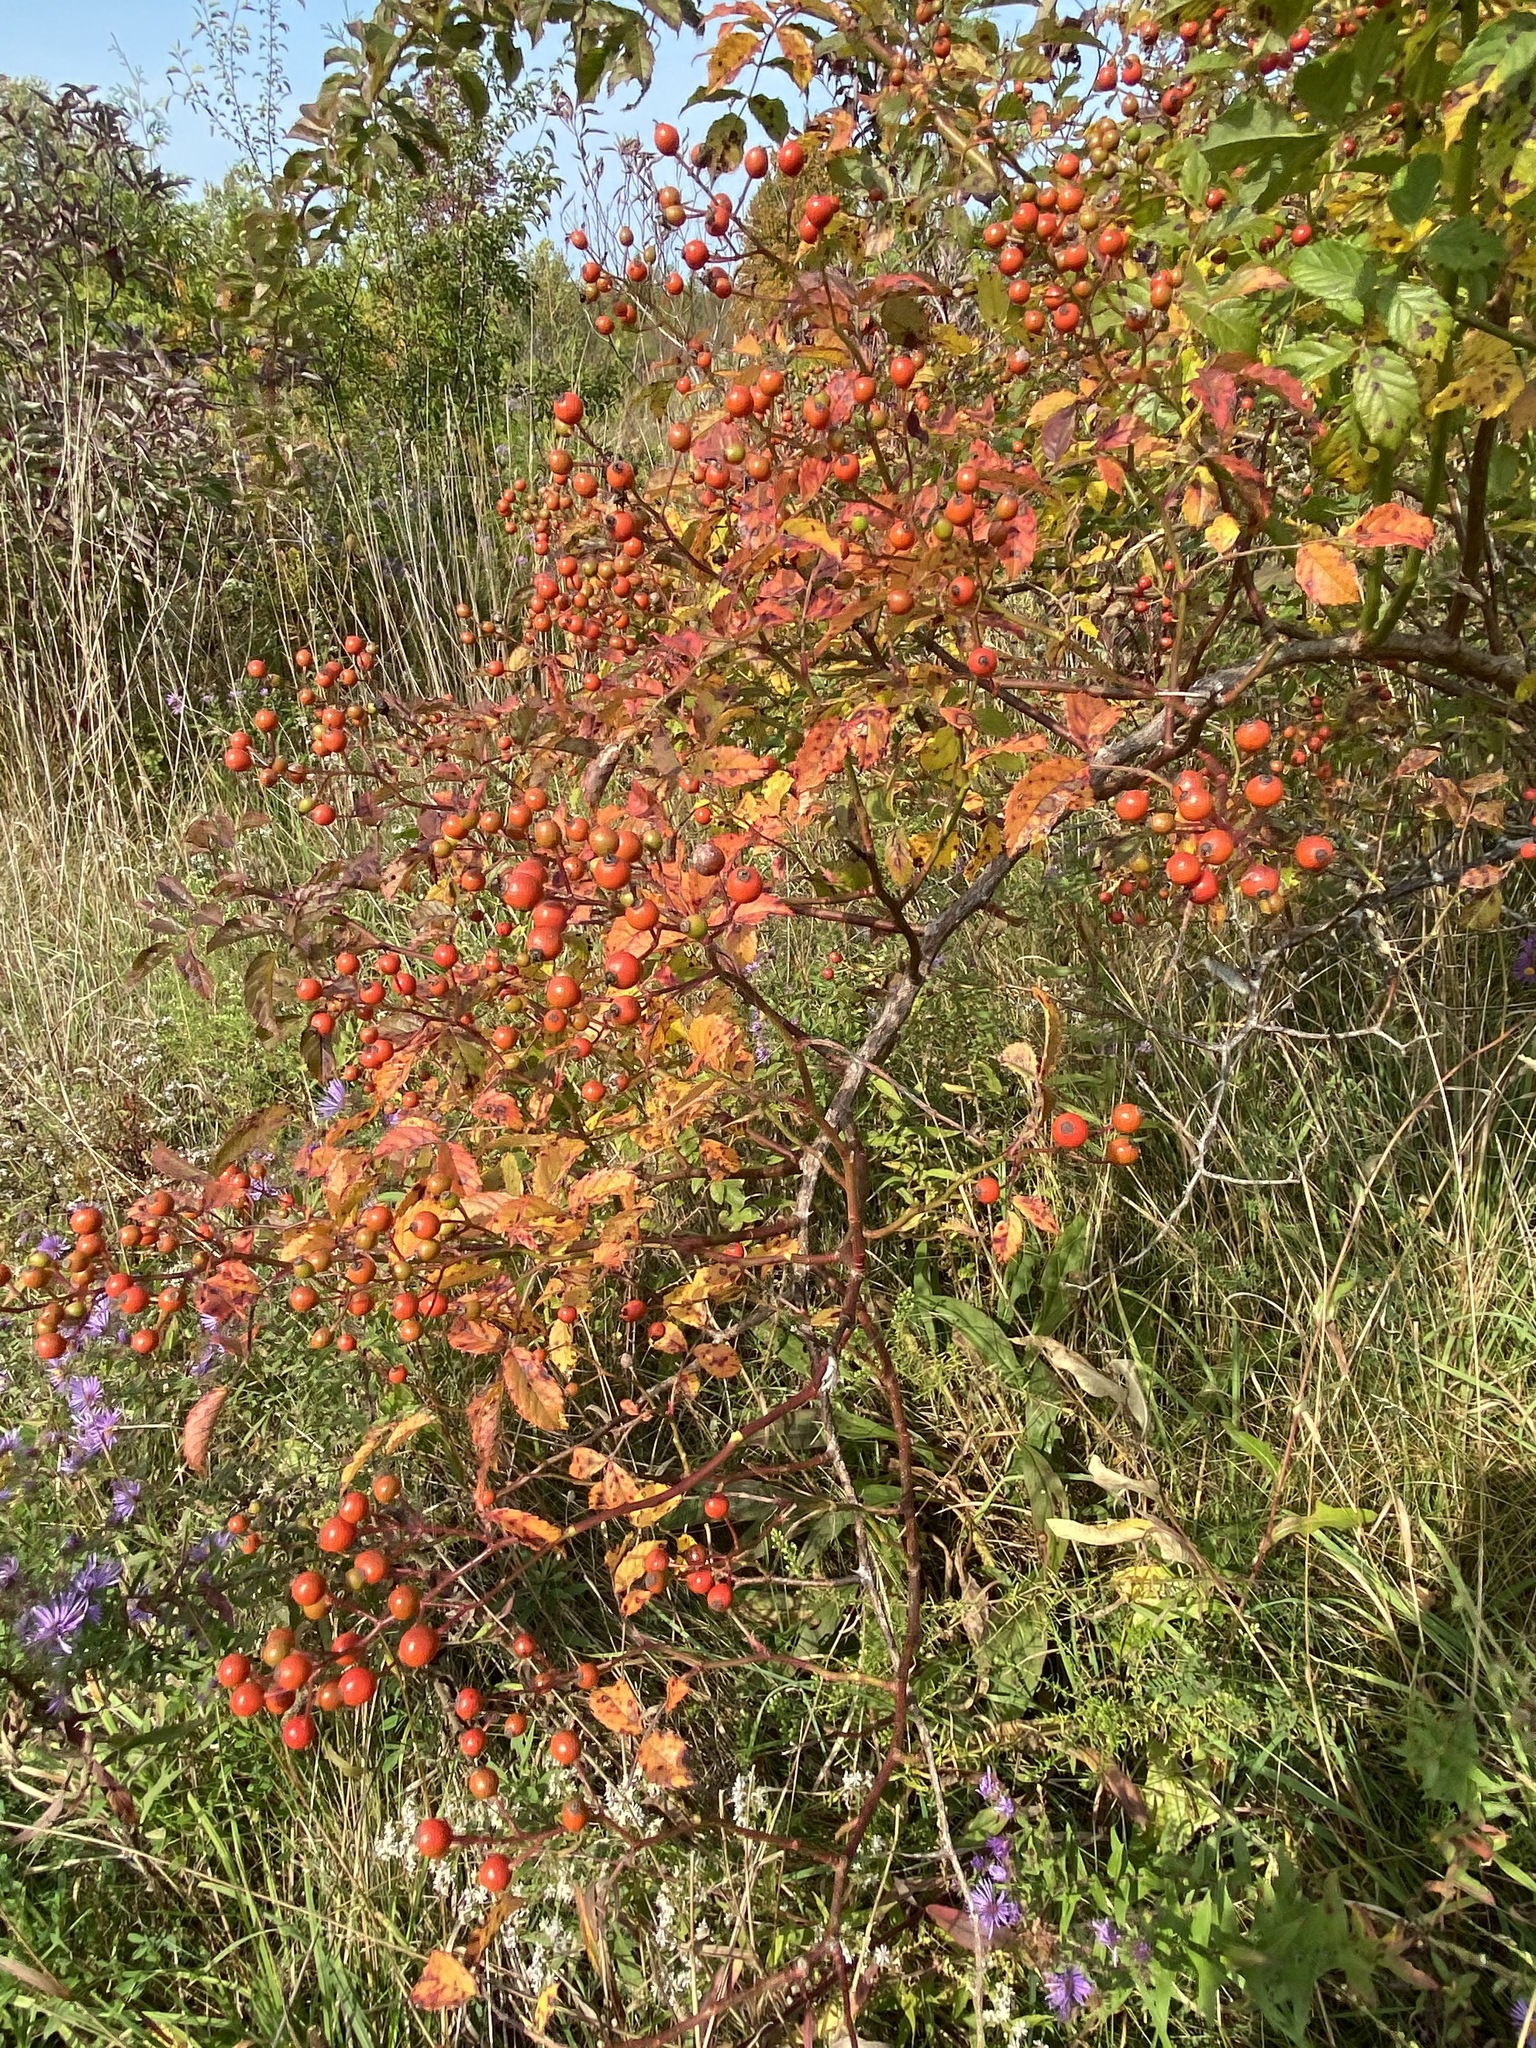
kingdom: Plantae
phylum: Tracheophyta
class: Magnoliopsida
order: Rosales
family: Rosaceae
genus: Rosa
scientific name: Rosa multiflora
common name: Multiflora rose
